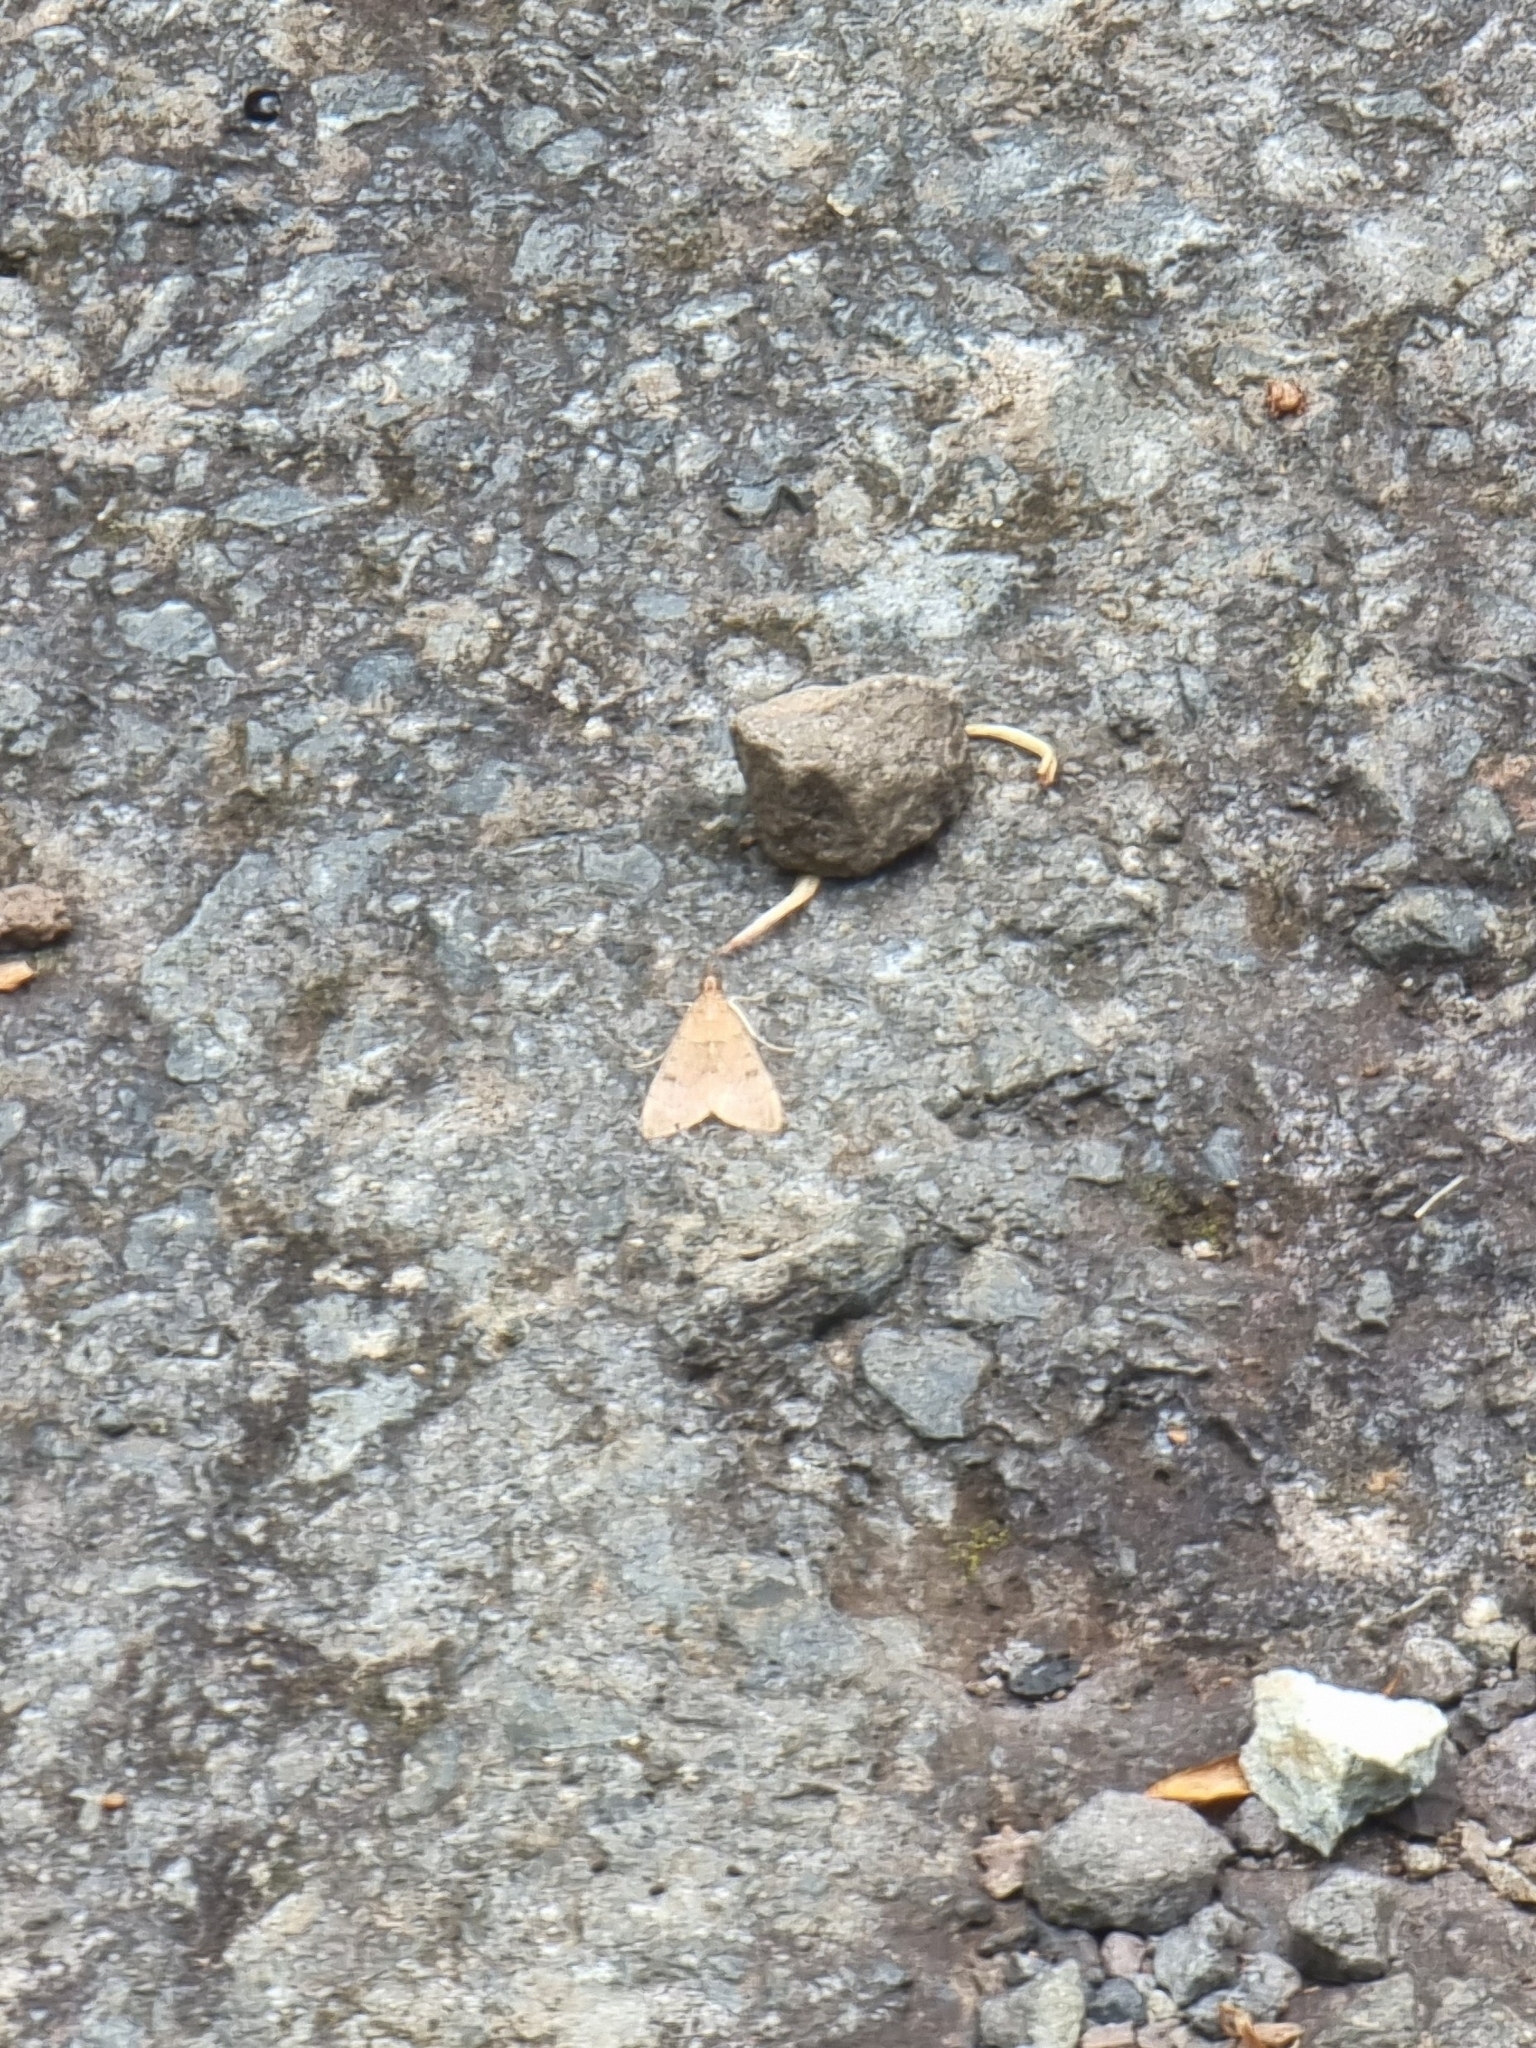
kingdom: Animalia
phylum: Arthropoda
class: Insecta
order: Lepidoptera
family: Crambidae
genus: Uresiphita
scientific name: Uresiphita gilvata
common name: Yellow-underwing pearl
